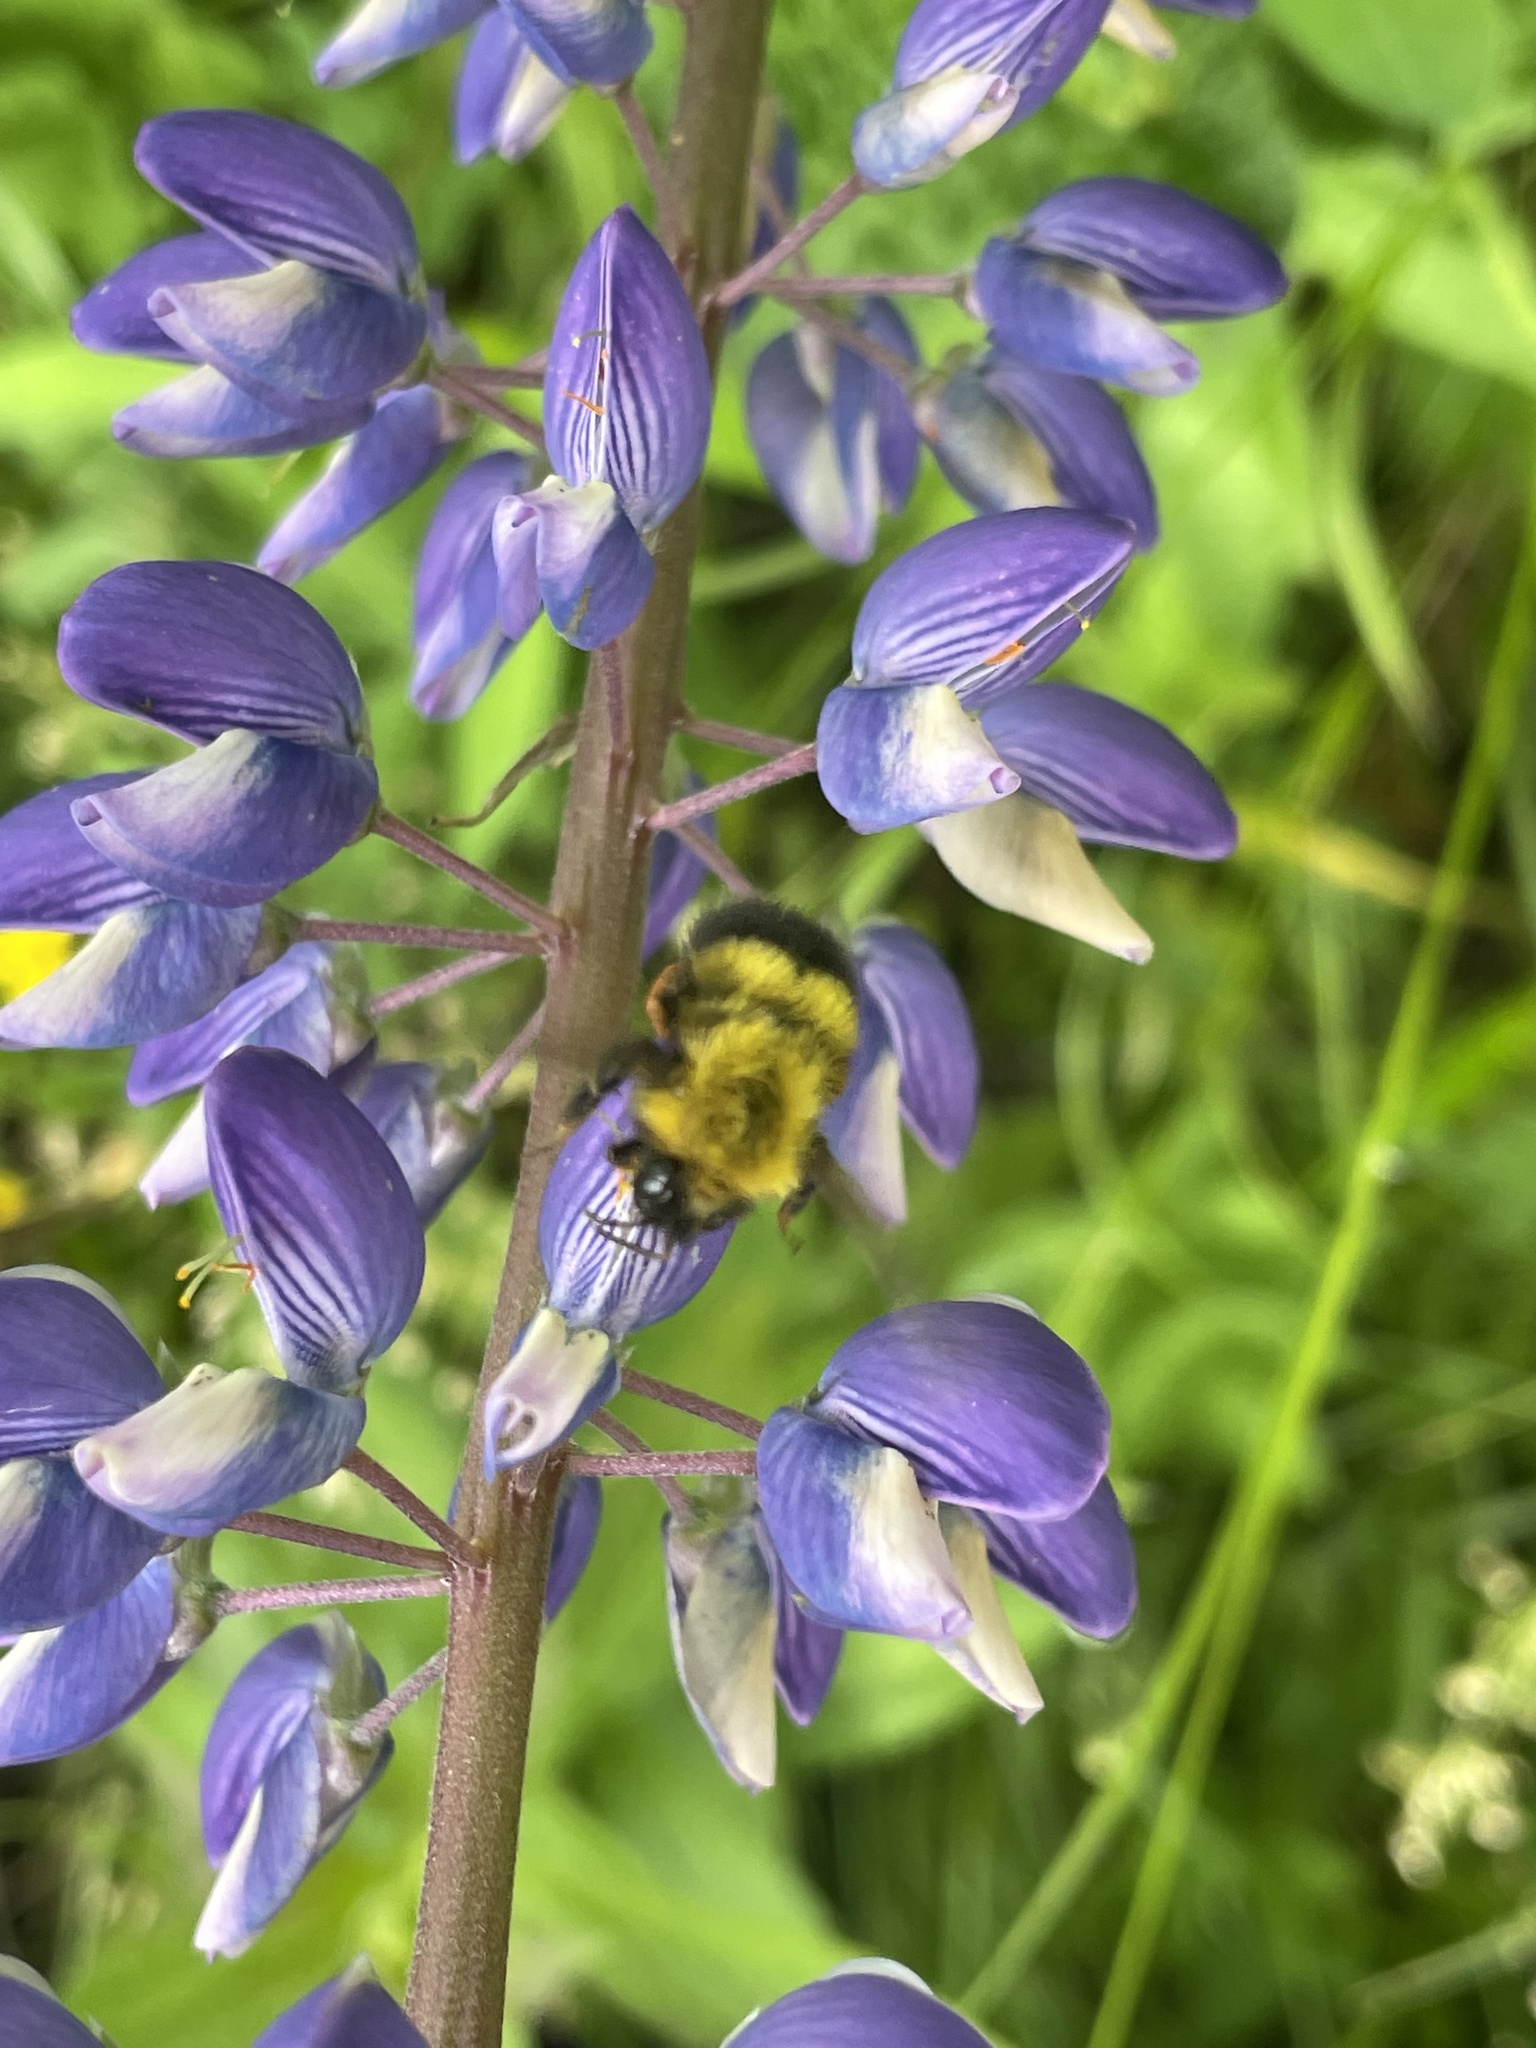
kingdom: Animalia
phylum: Arthropoda
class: Insecta
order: Hymenoptera
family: Apidae
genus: Bombus
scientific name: Bombus perplexus
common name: Confusing bumble bee
